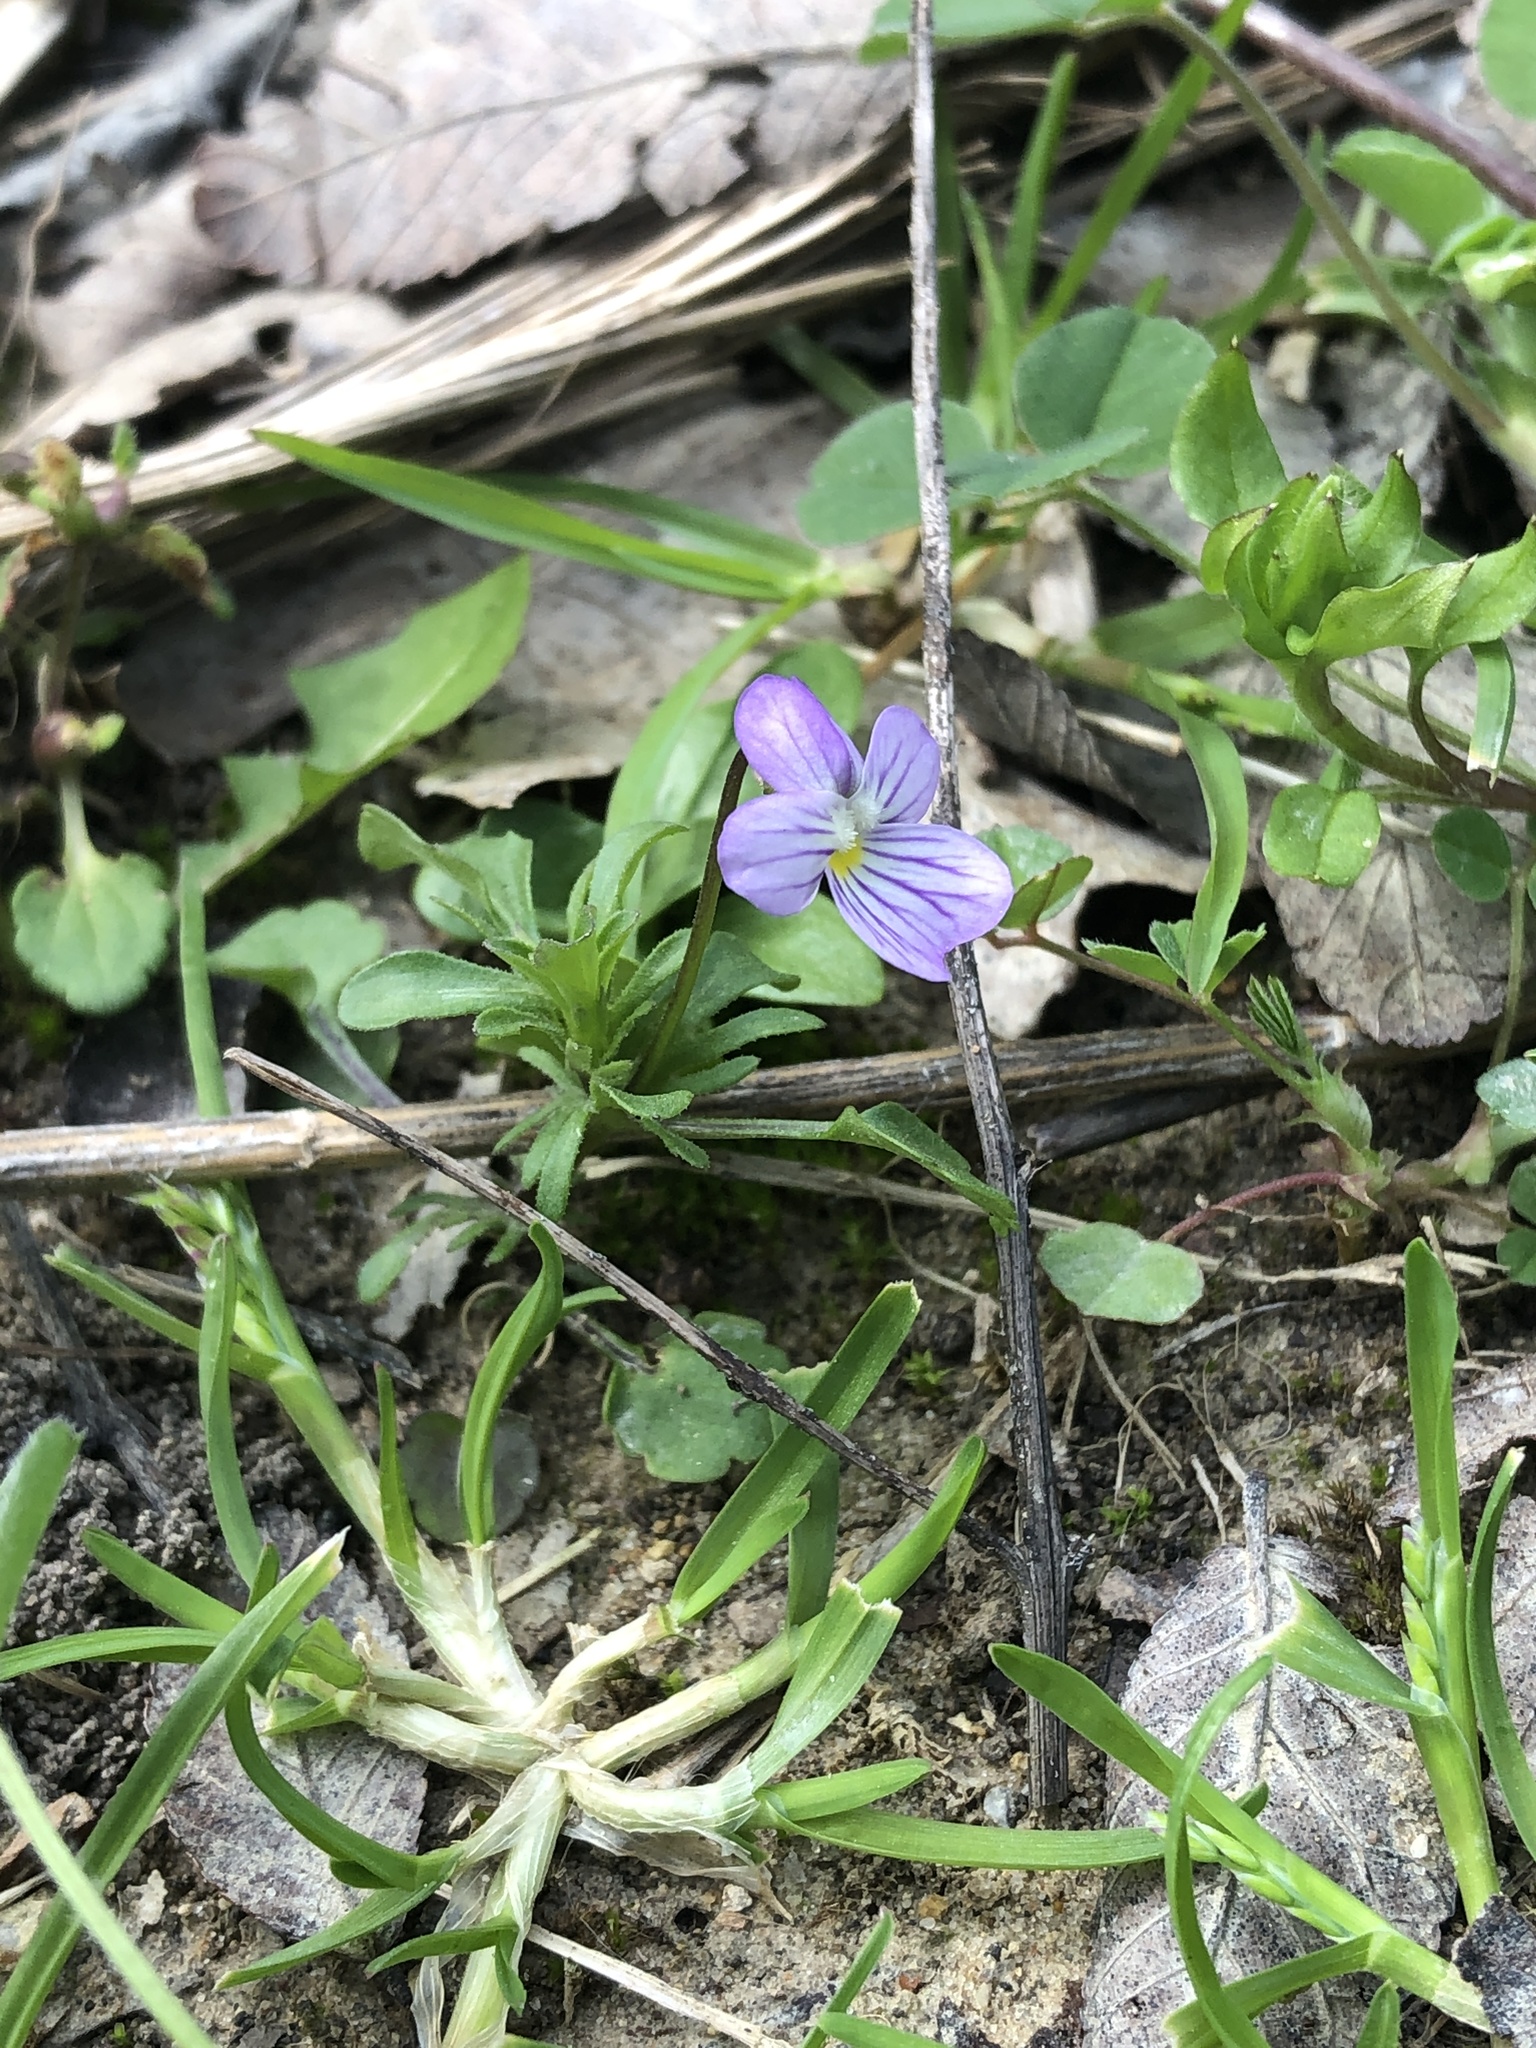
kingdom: Plantae
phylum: Tracheophyta
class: Magnoliopsida
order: Malpighiales
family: Violaceae
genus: Viola
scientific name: Viola rafinesquei
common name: American field pansy
